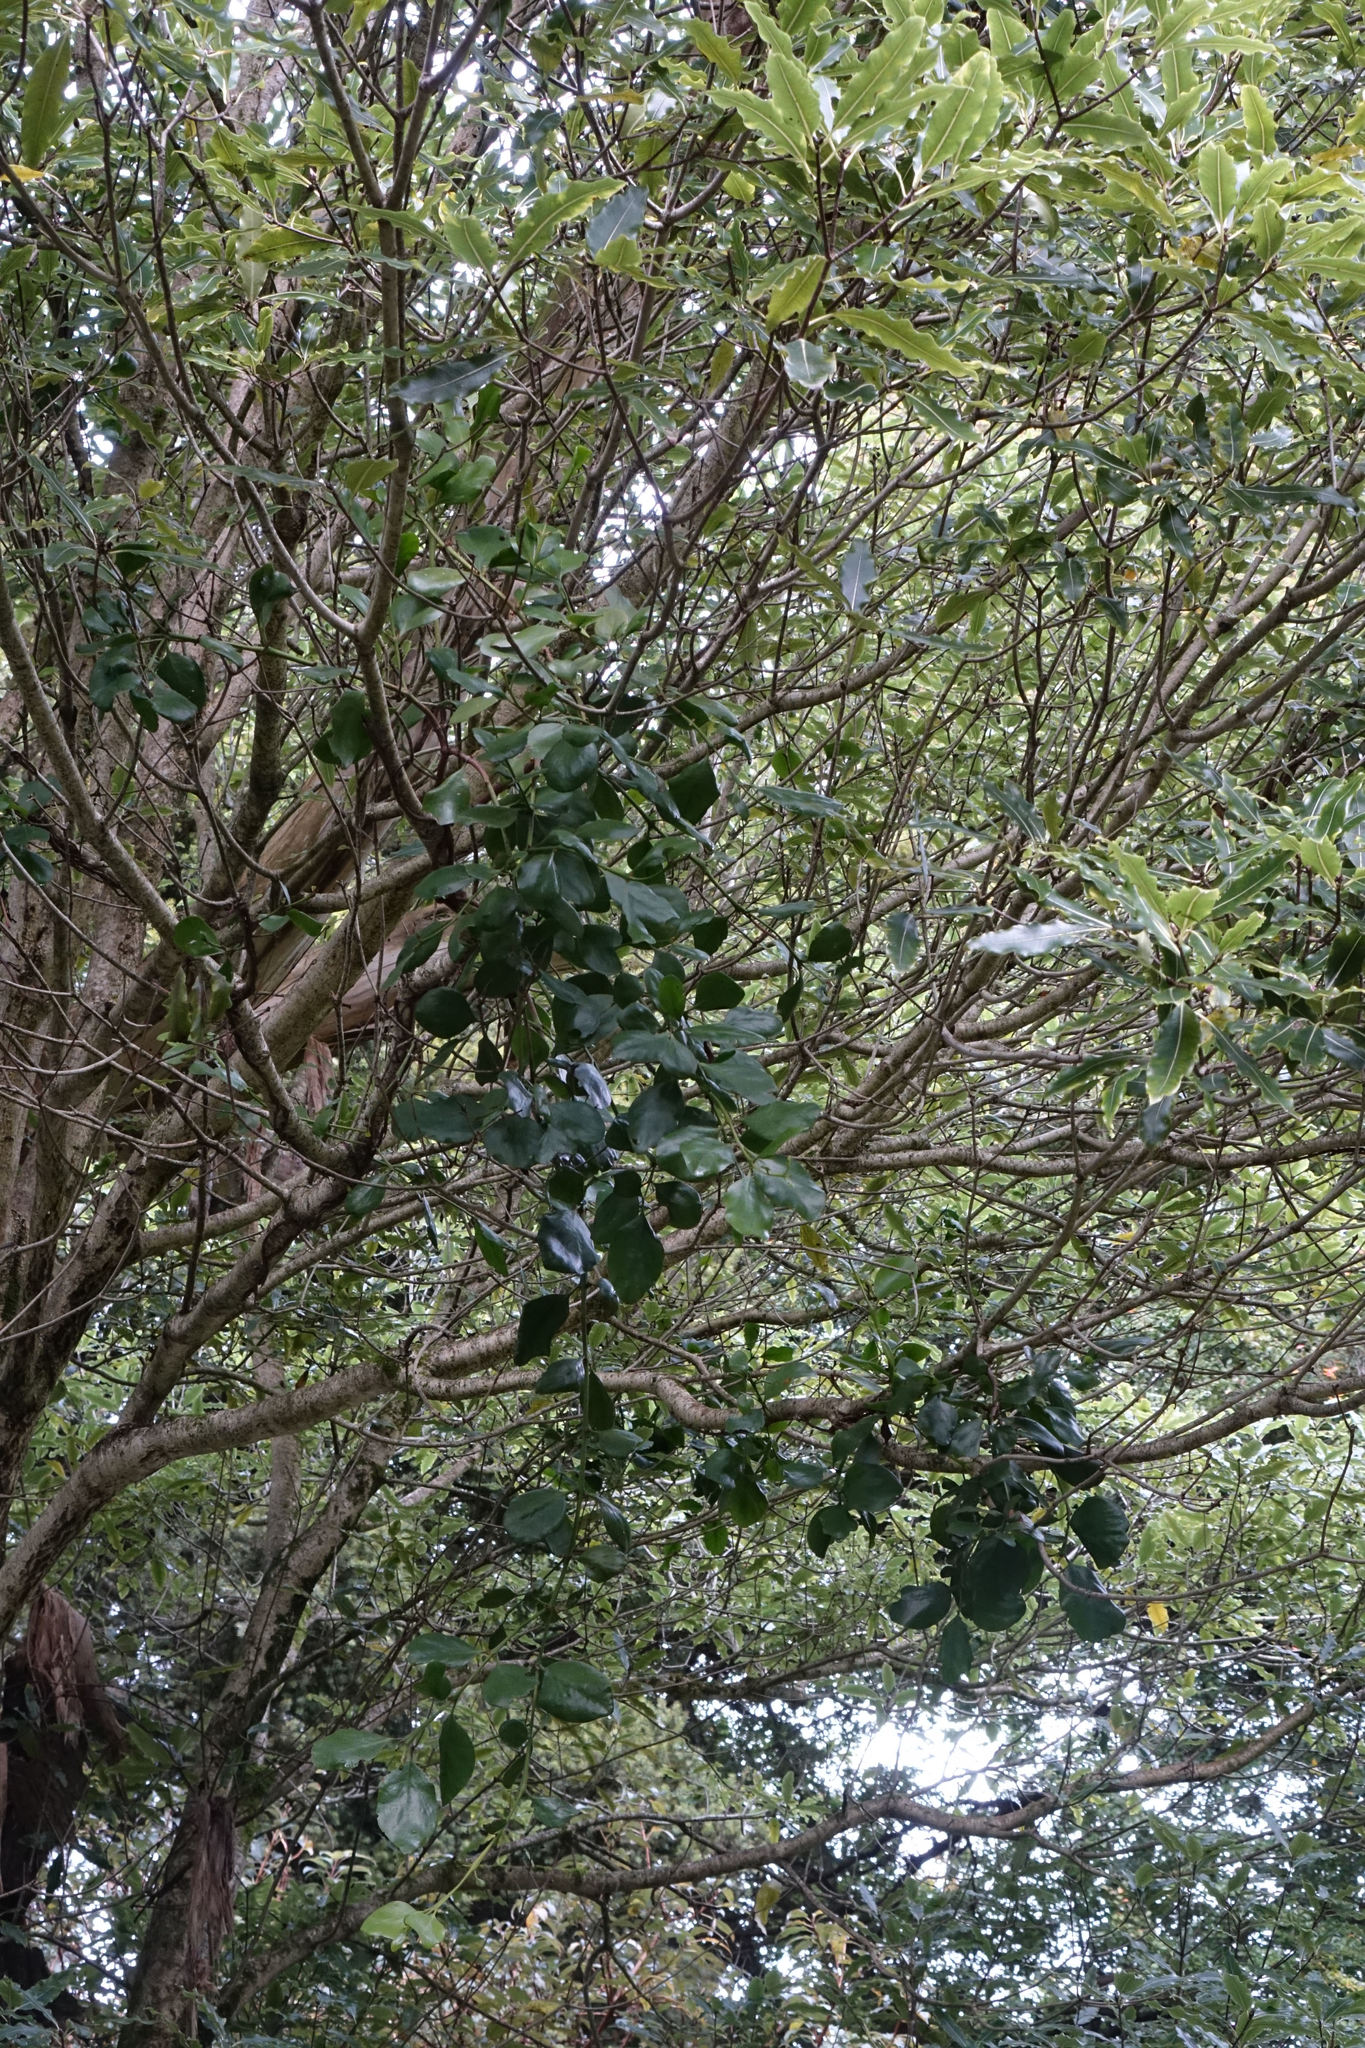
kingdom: Plantae
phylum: Tracheophyta
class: Magnoliopsida
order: Santalales
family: Loranthaceae
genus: Ileostylus
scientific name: Ileostylus micranthus
